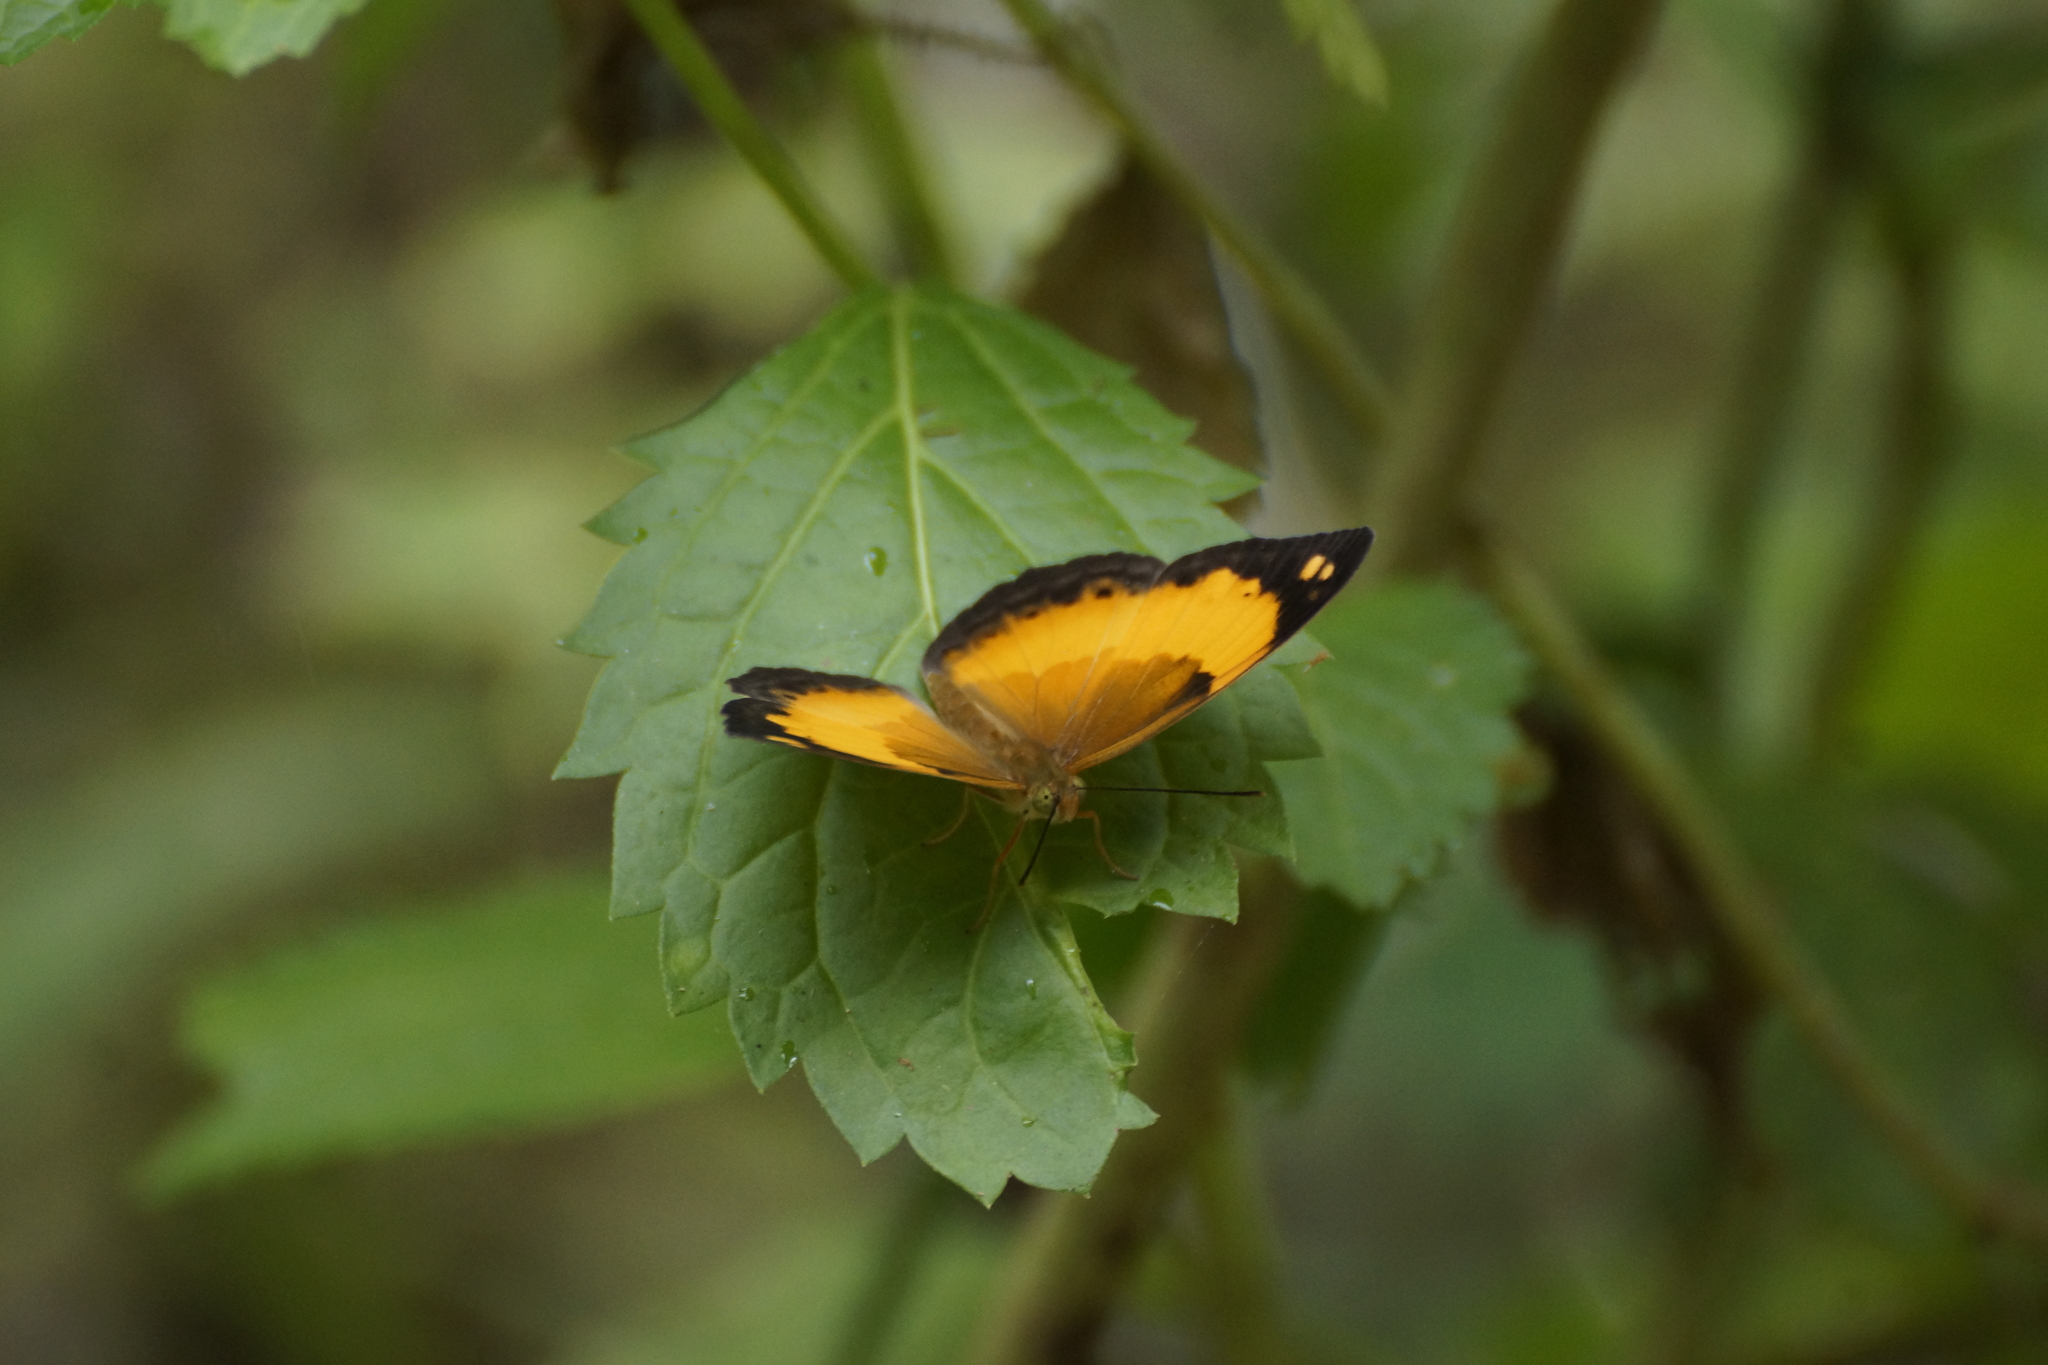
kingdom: Animalia
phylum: Arthropoda
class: Insecta
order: Lepidoptera
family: Nymphalidae
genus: Cupha
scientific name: Cupha prosope
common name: Bordered rustic
